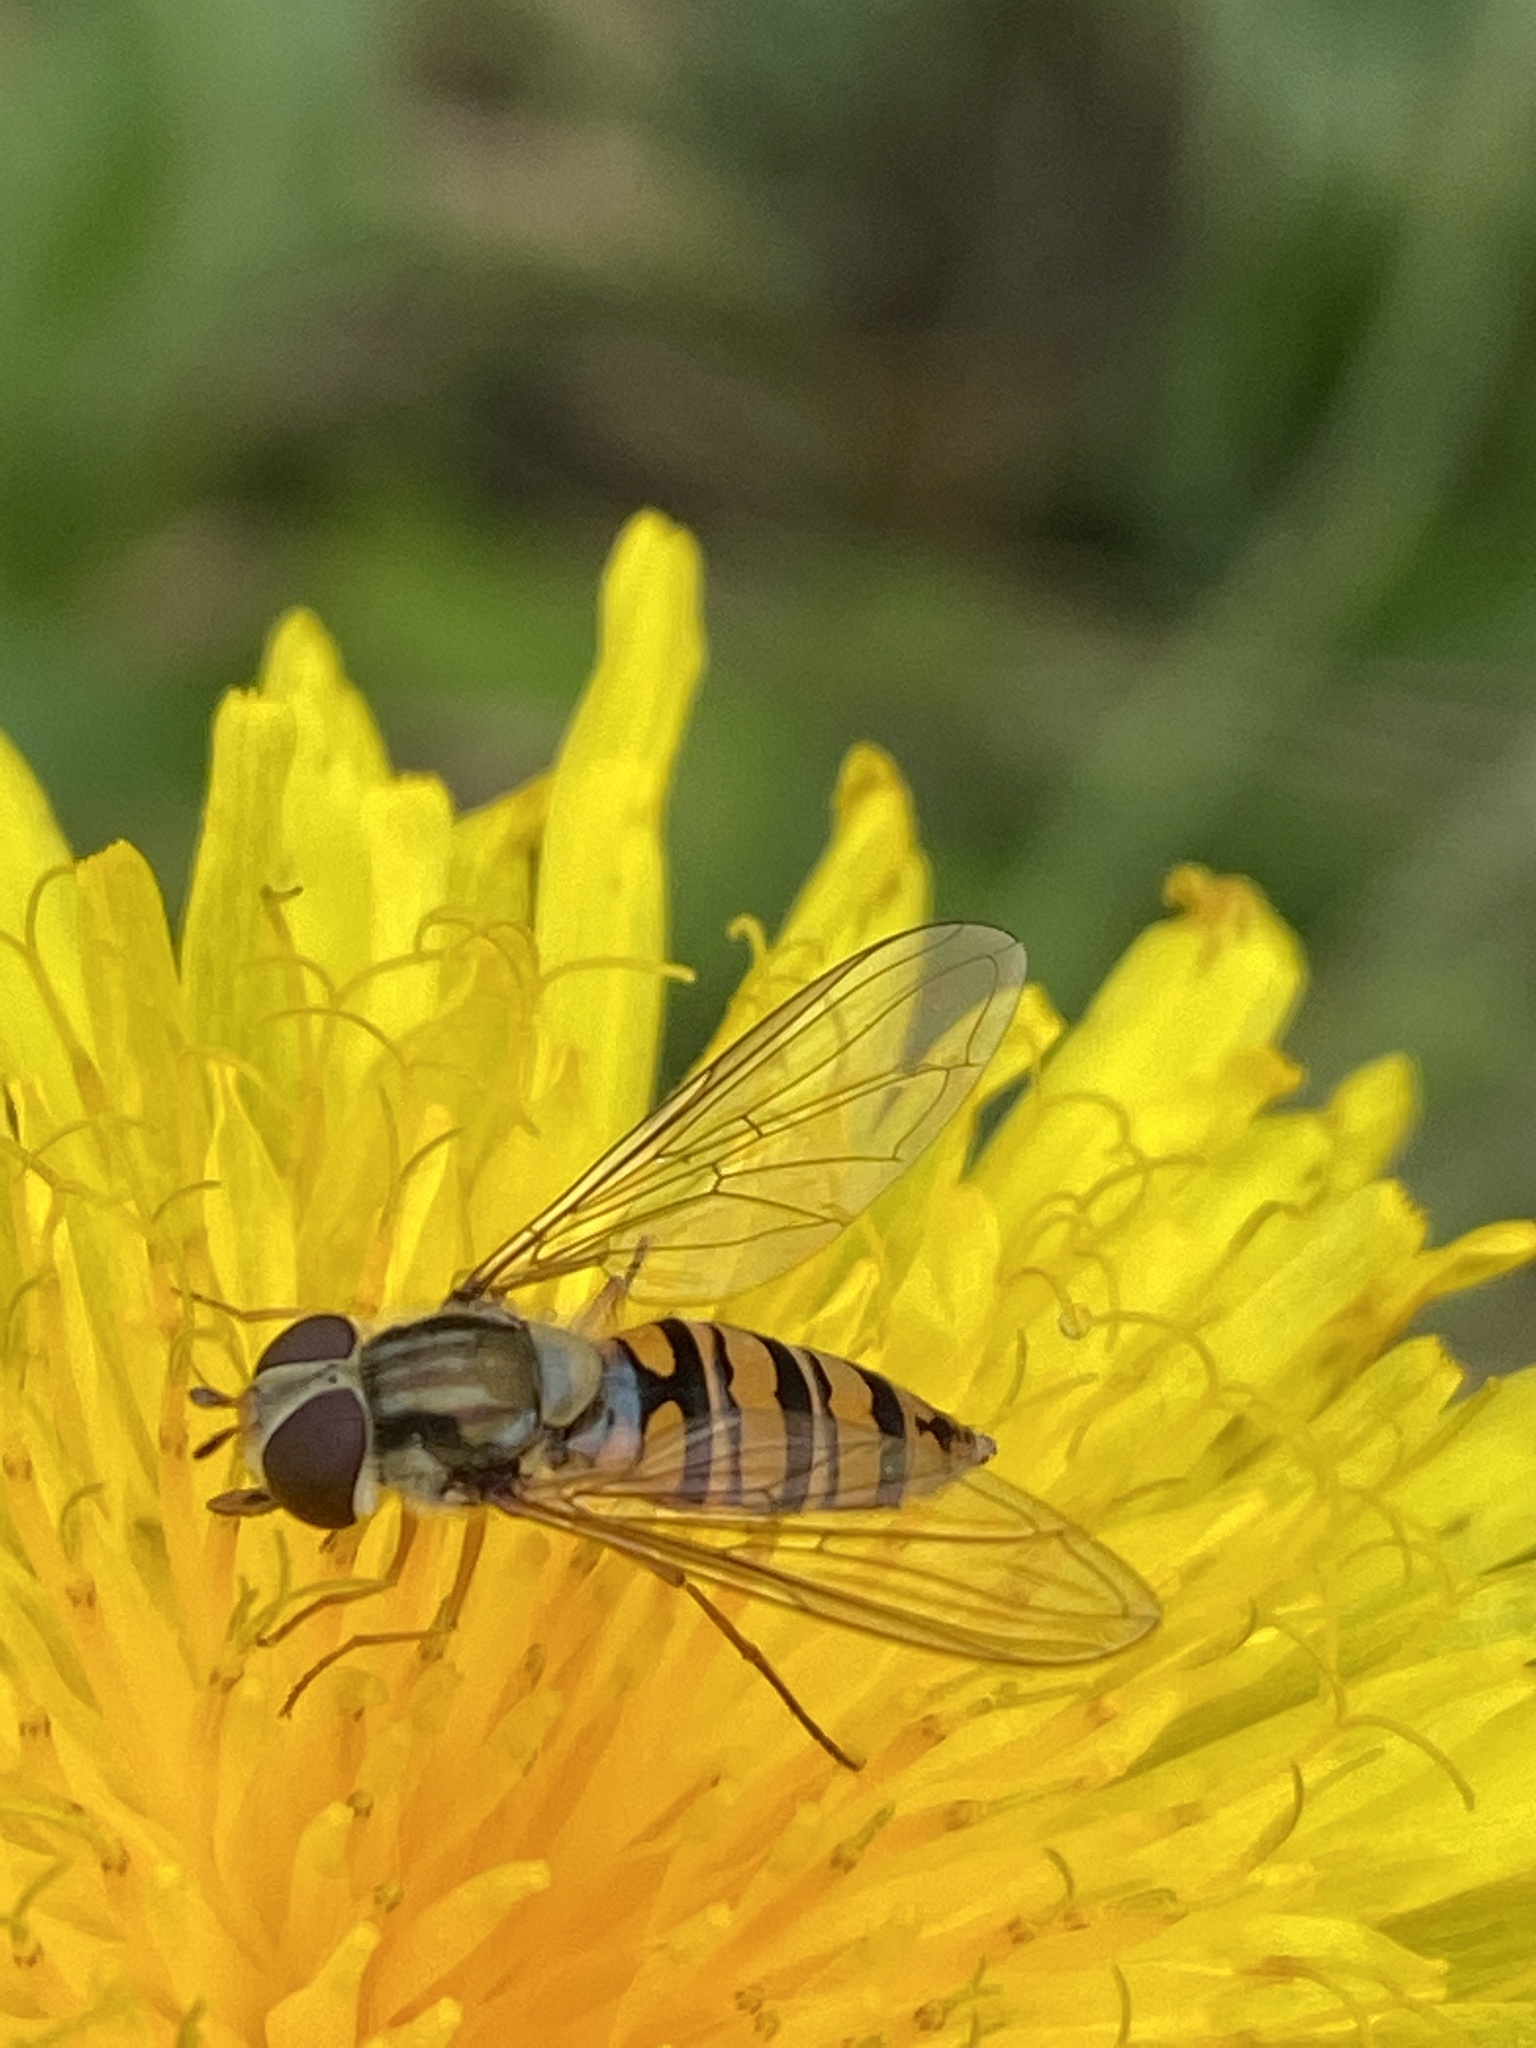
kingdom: Animalia
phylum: Arthropoda
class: Insecta
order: Diptera
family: Syrphidae
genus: Episyrphus
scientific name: Episyrphus balteatus
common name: Marmalade hoverfly
